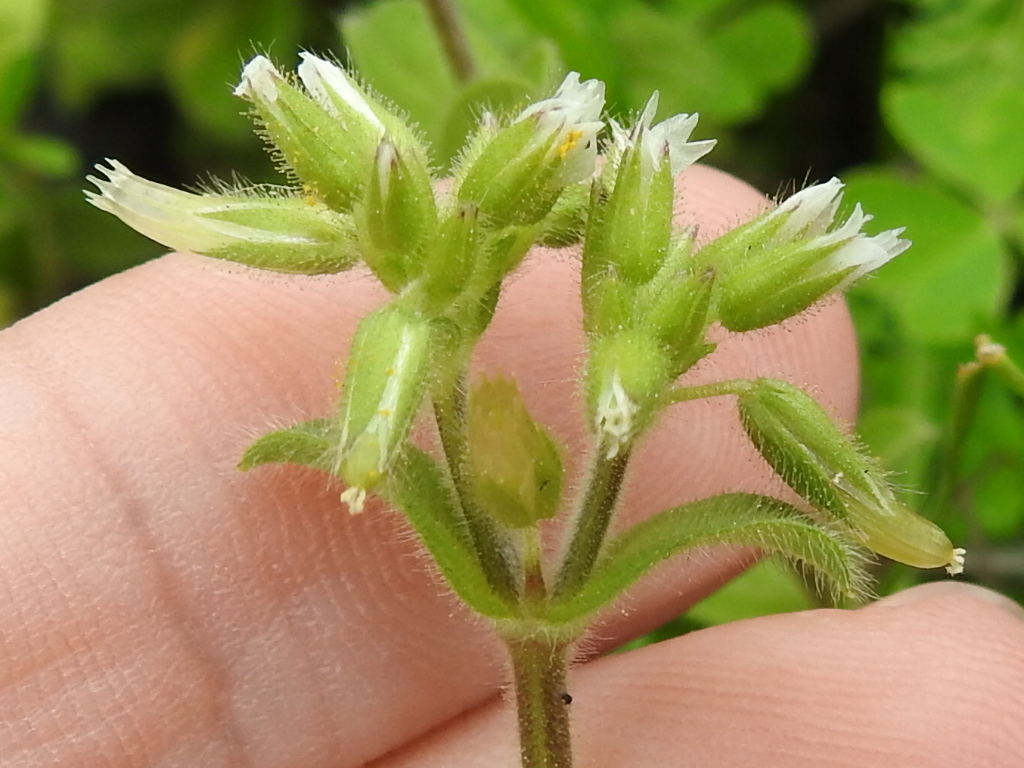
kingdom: Plantae
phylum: Tracheophyta
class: Magnoliopsida
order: Caryophyllales
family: Caryophyllaceae
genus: Cerastium
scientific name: Cerastium glomeratum
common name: Sticky chickweed
